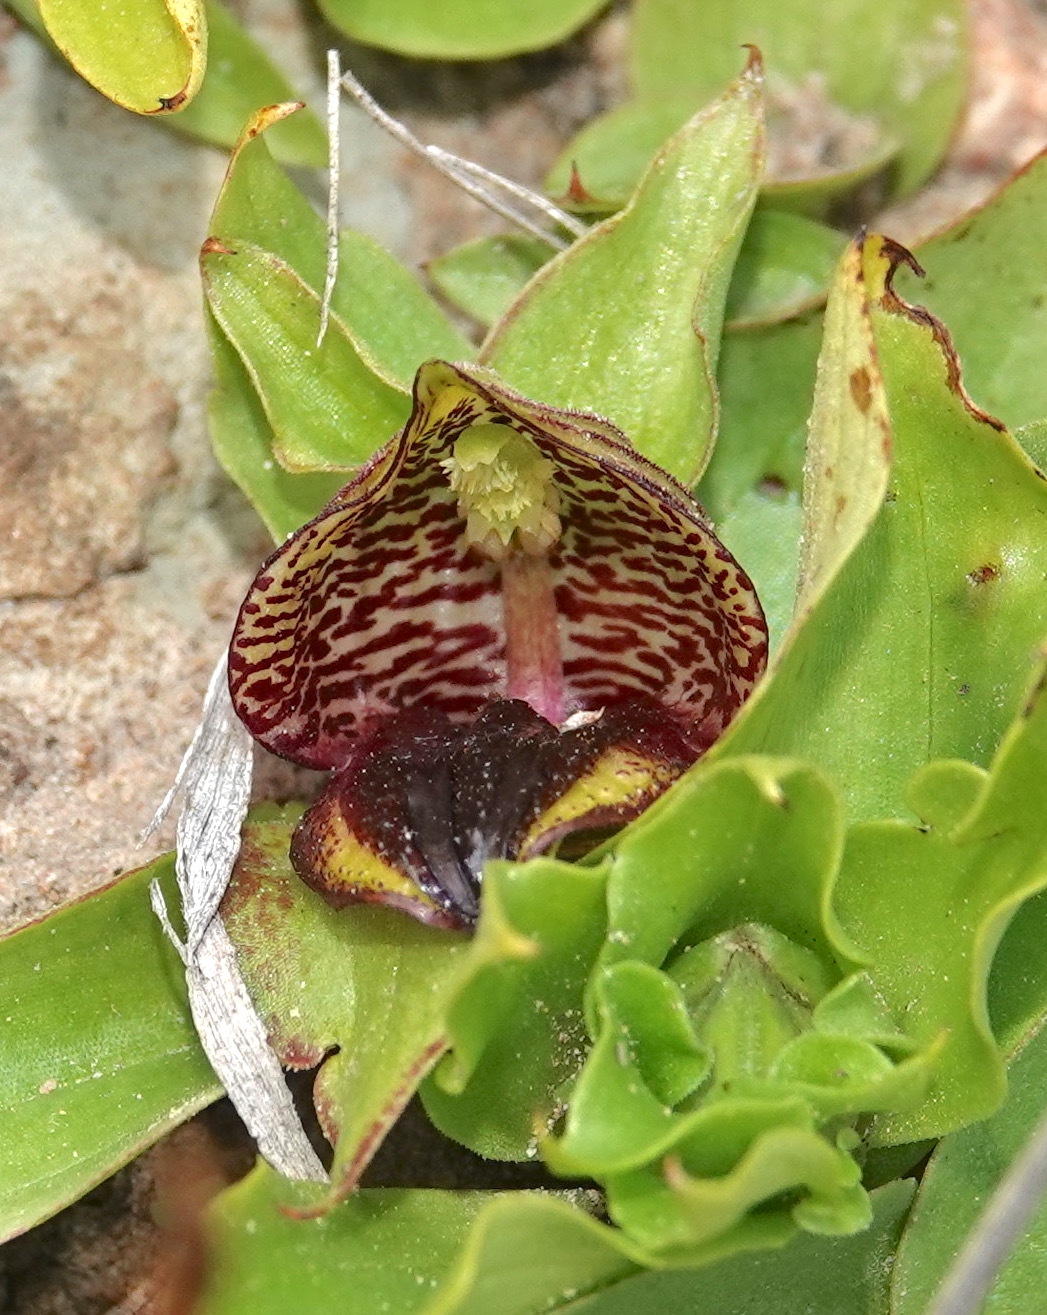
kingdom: Plantae
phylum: Tracheophyta
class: Liliopsida
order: Asparagales
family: Orchidaceae
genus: Satyrium
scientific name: Satyrium pumilum
